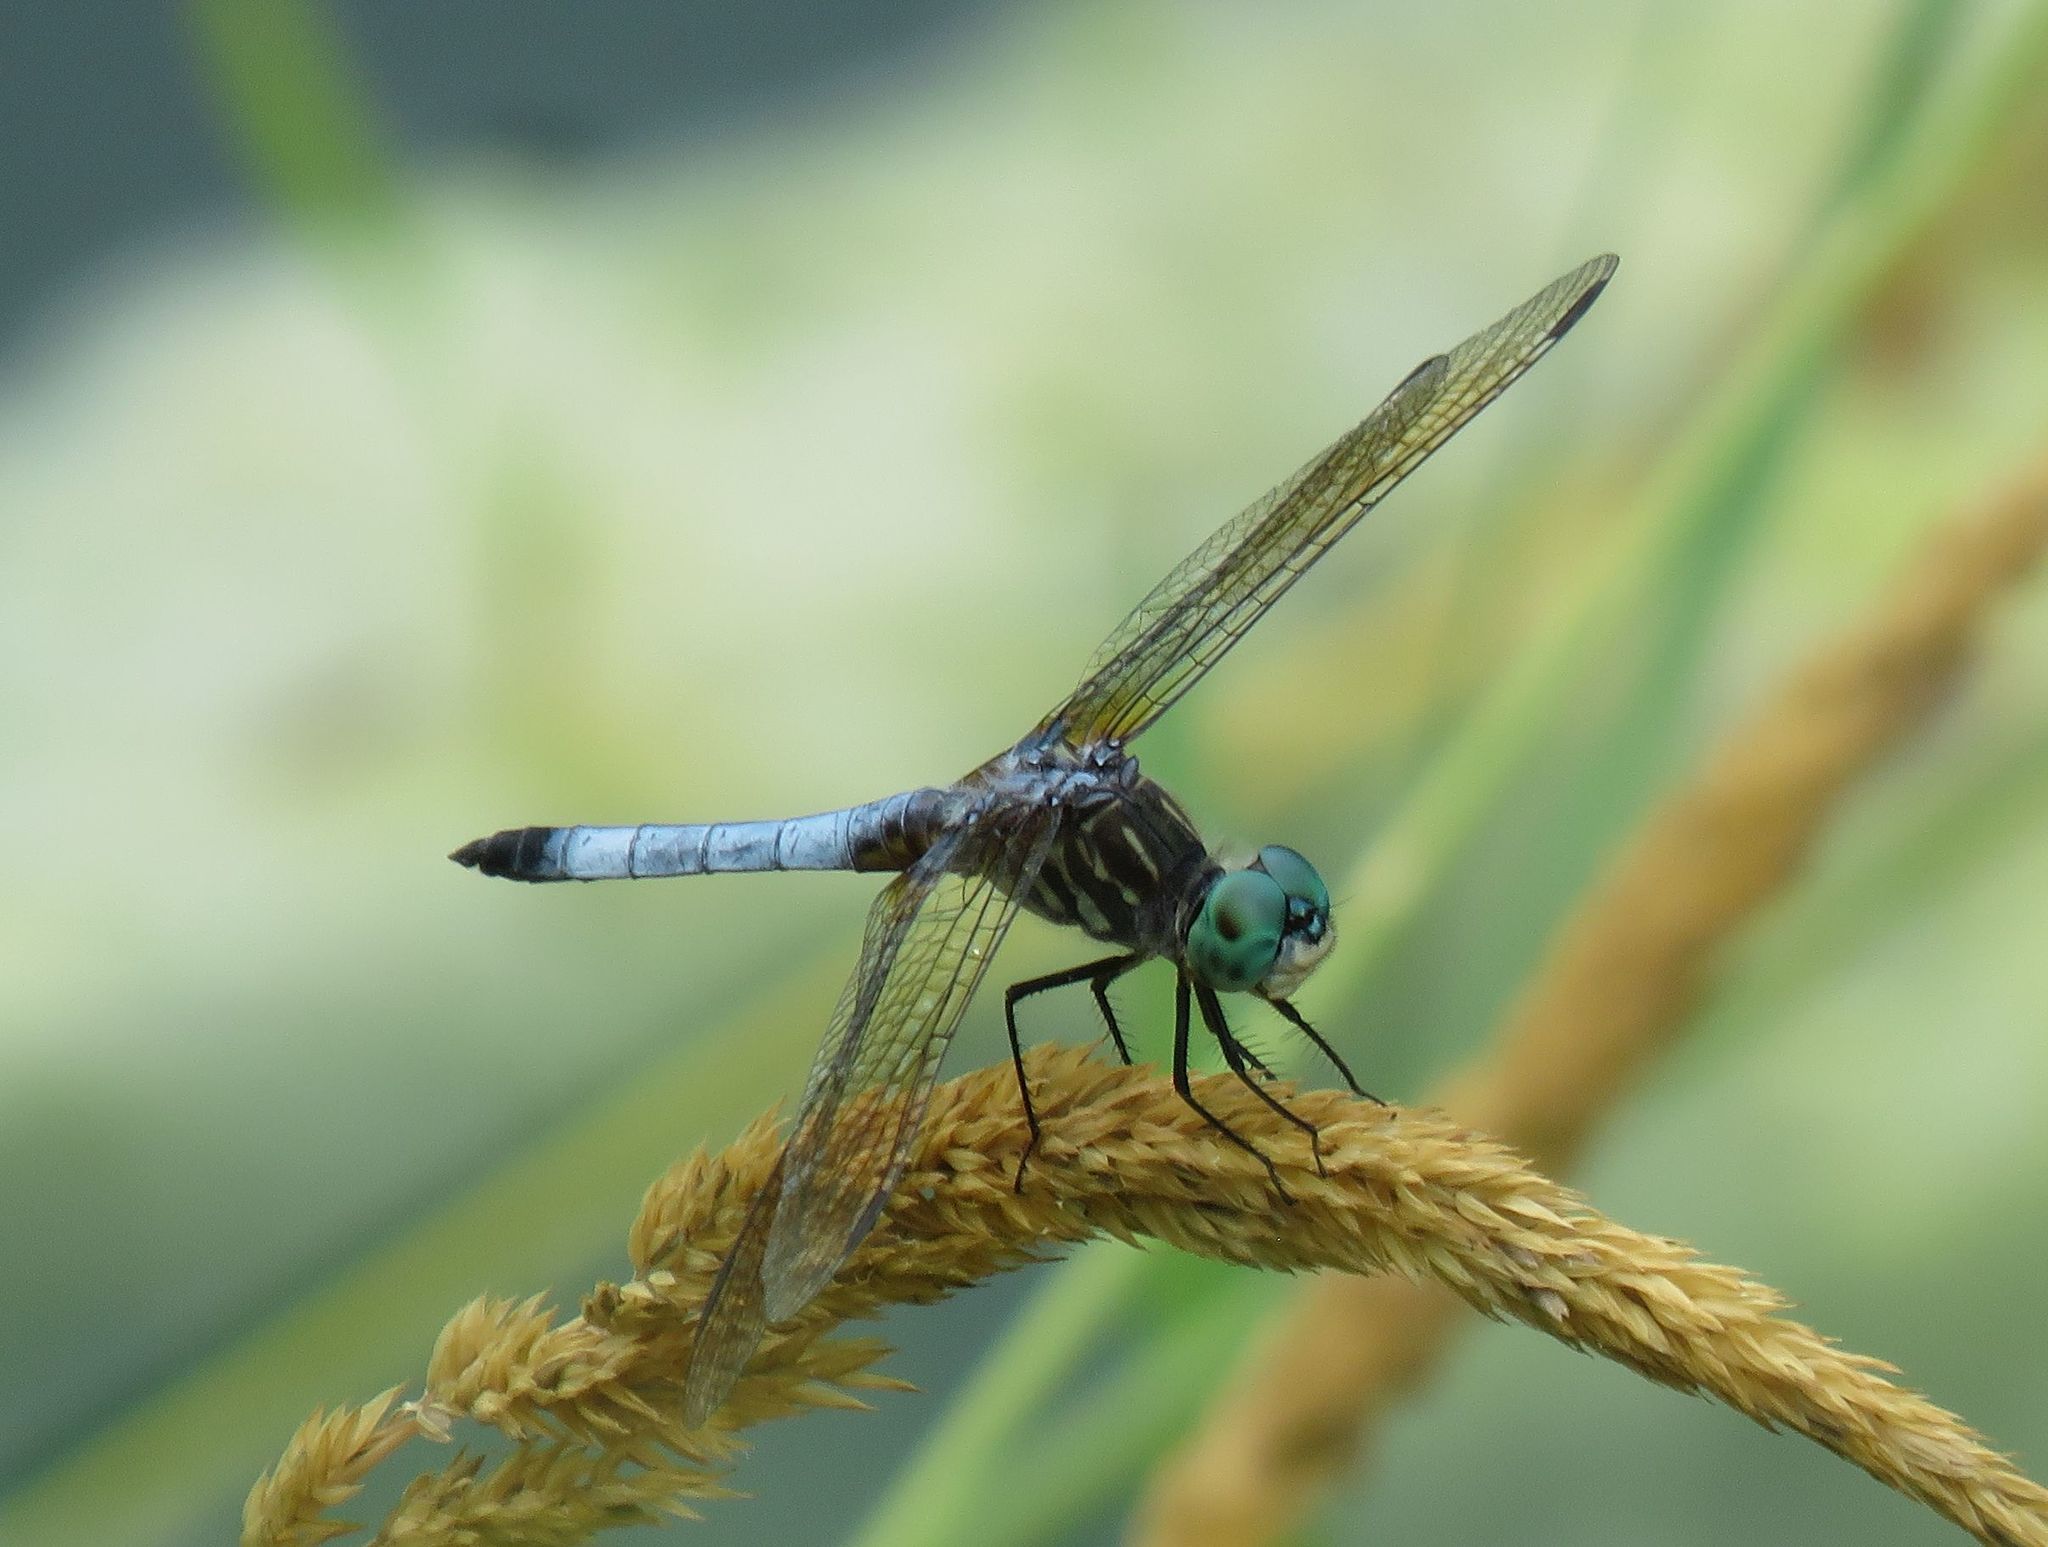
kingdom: Animalia
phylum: Arthropoda
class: Insecta
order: Odonata
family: Libellulidae
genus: Pachydiplax
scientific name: Pachydiplax longipennis
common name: Blue dasher
